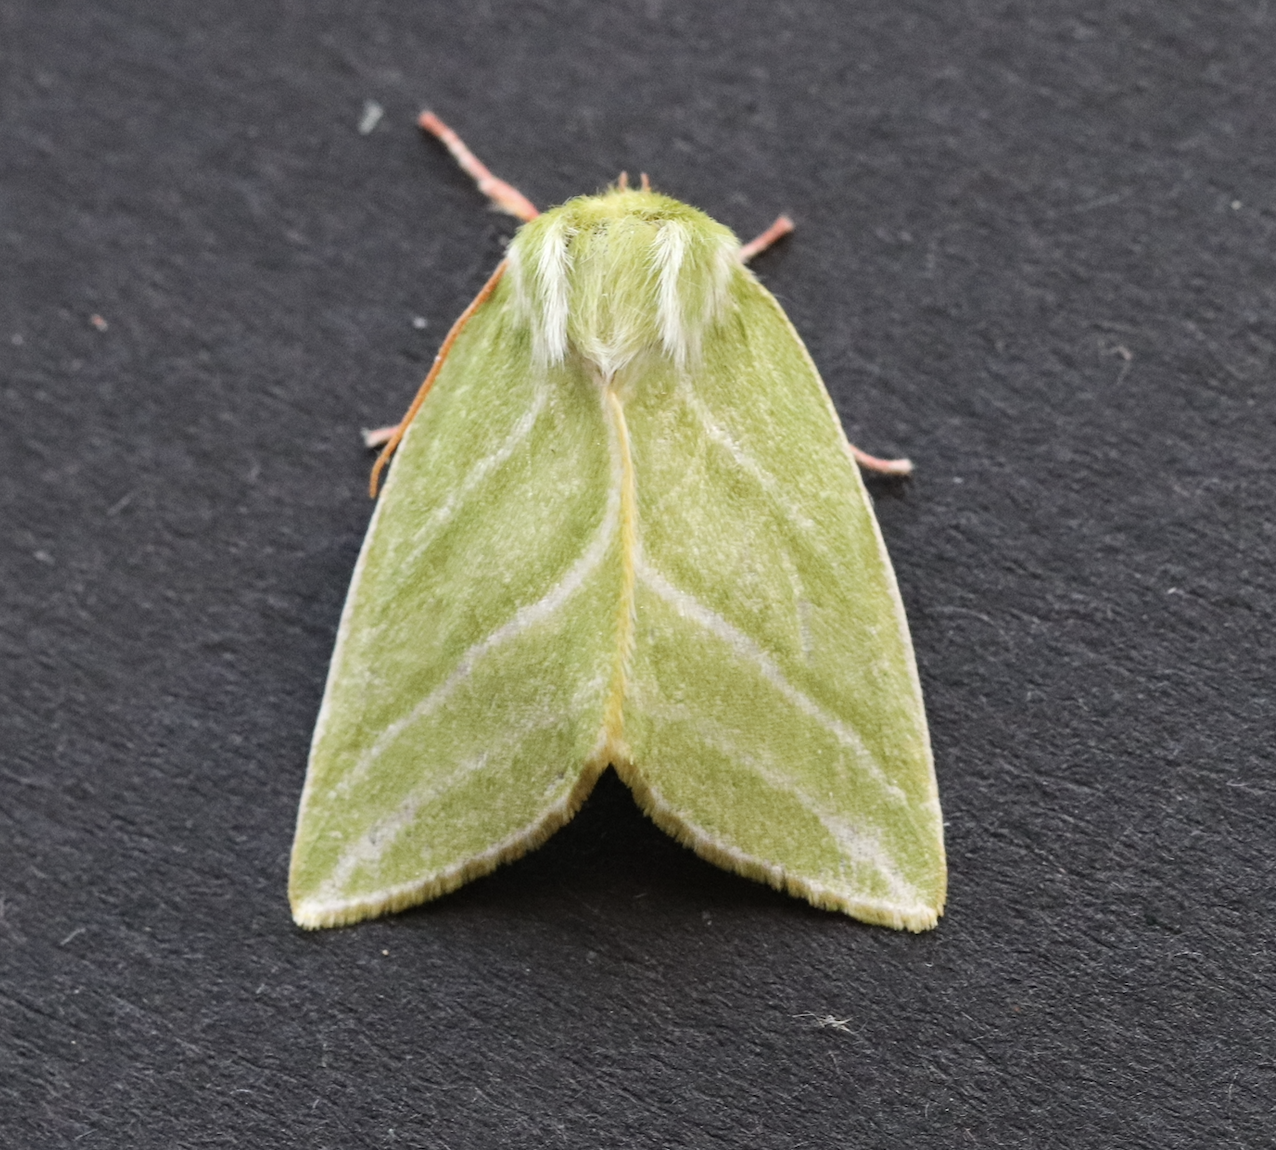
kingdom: Animalia
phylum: Arthropoda
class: Insecta
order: Lepidoptera
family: Nolidae
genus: Pseudoips
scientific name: Pseudoips prasinana
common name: Green silver-lines
